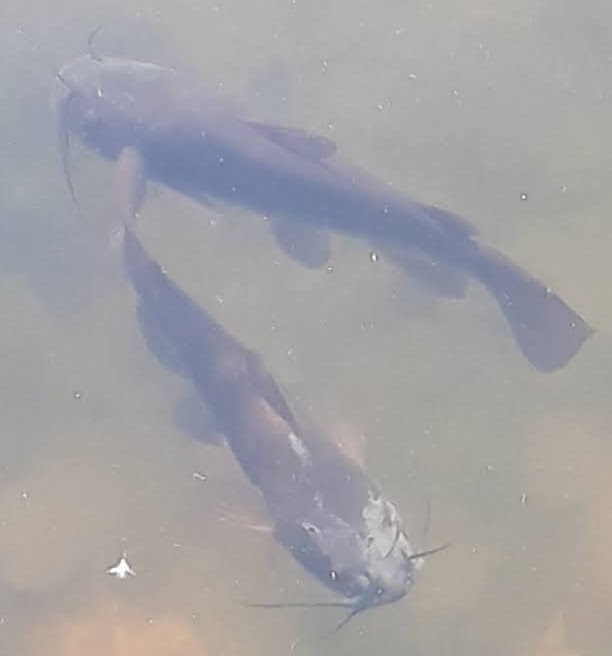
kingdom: Animalia
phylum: Chordata
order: Siluriformes
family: Ictaluridae
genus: Ameiurus
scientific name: Ameiurus
